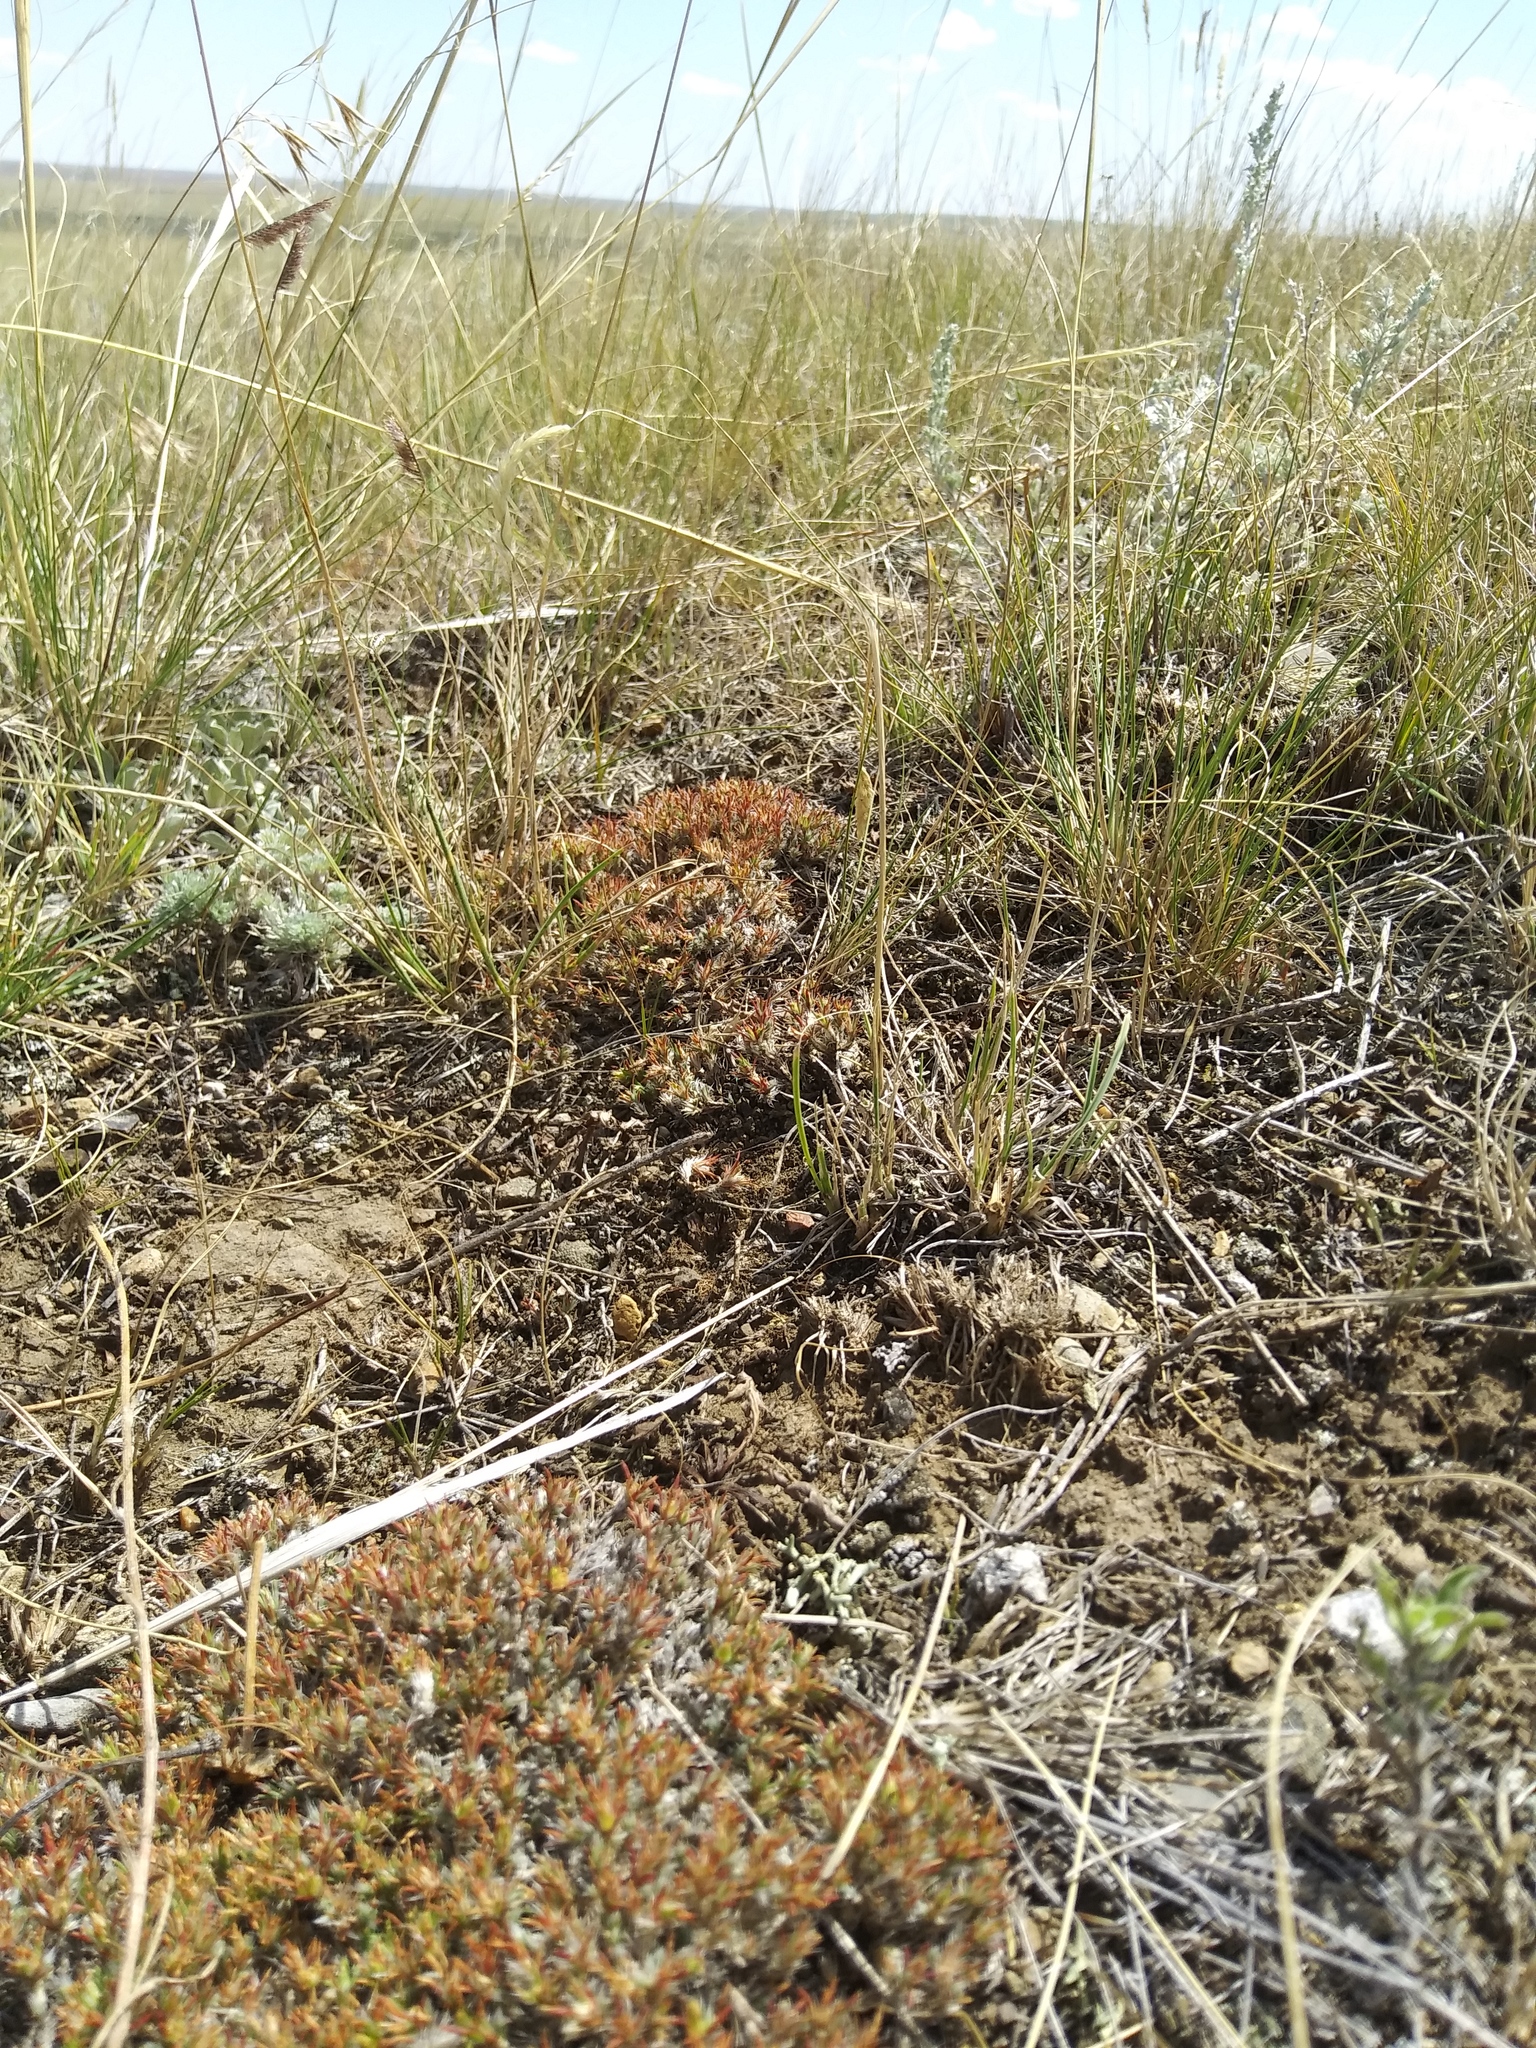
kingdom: Plantae
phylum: Tracheophyta
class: Magnoliopsida
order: Caryophyllales
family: Caryophyllaceae
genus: Paronychia
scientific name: Paronychia sessiliflora
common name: Creeping nailwort
